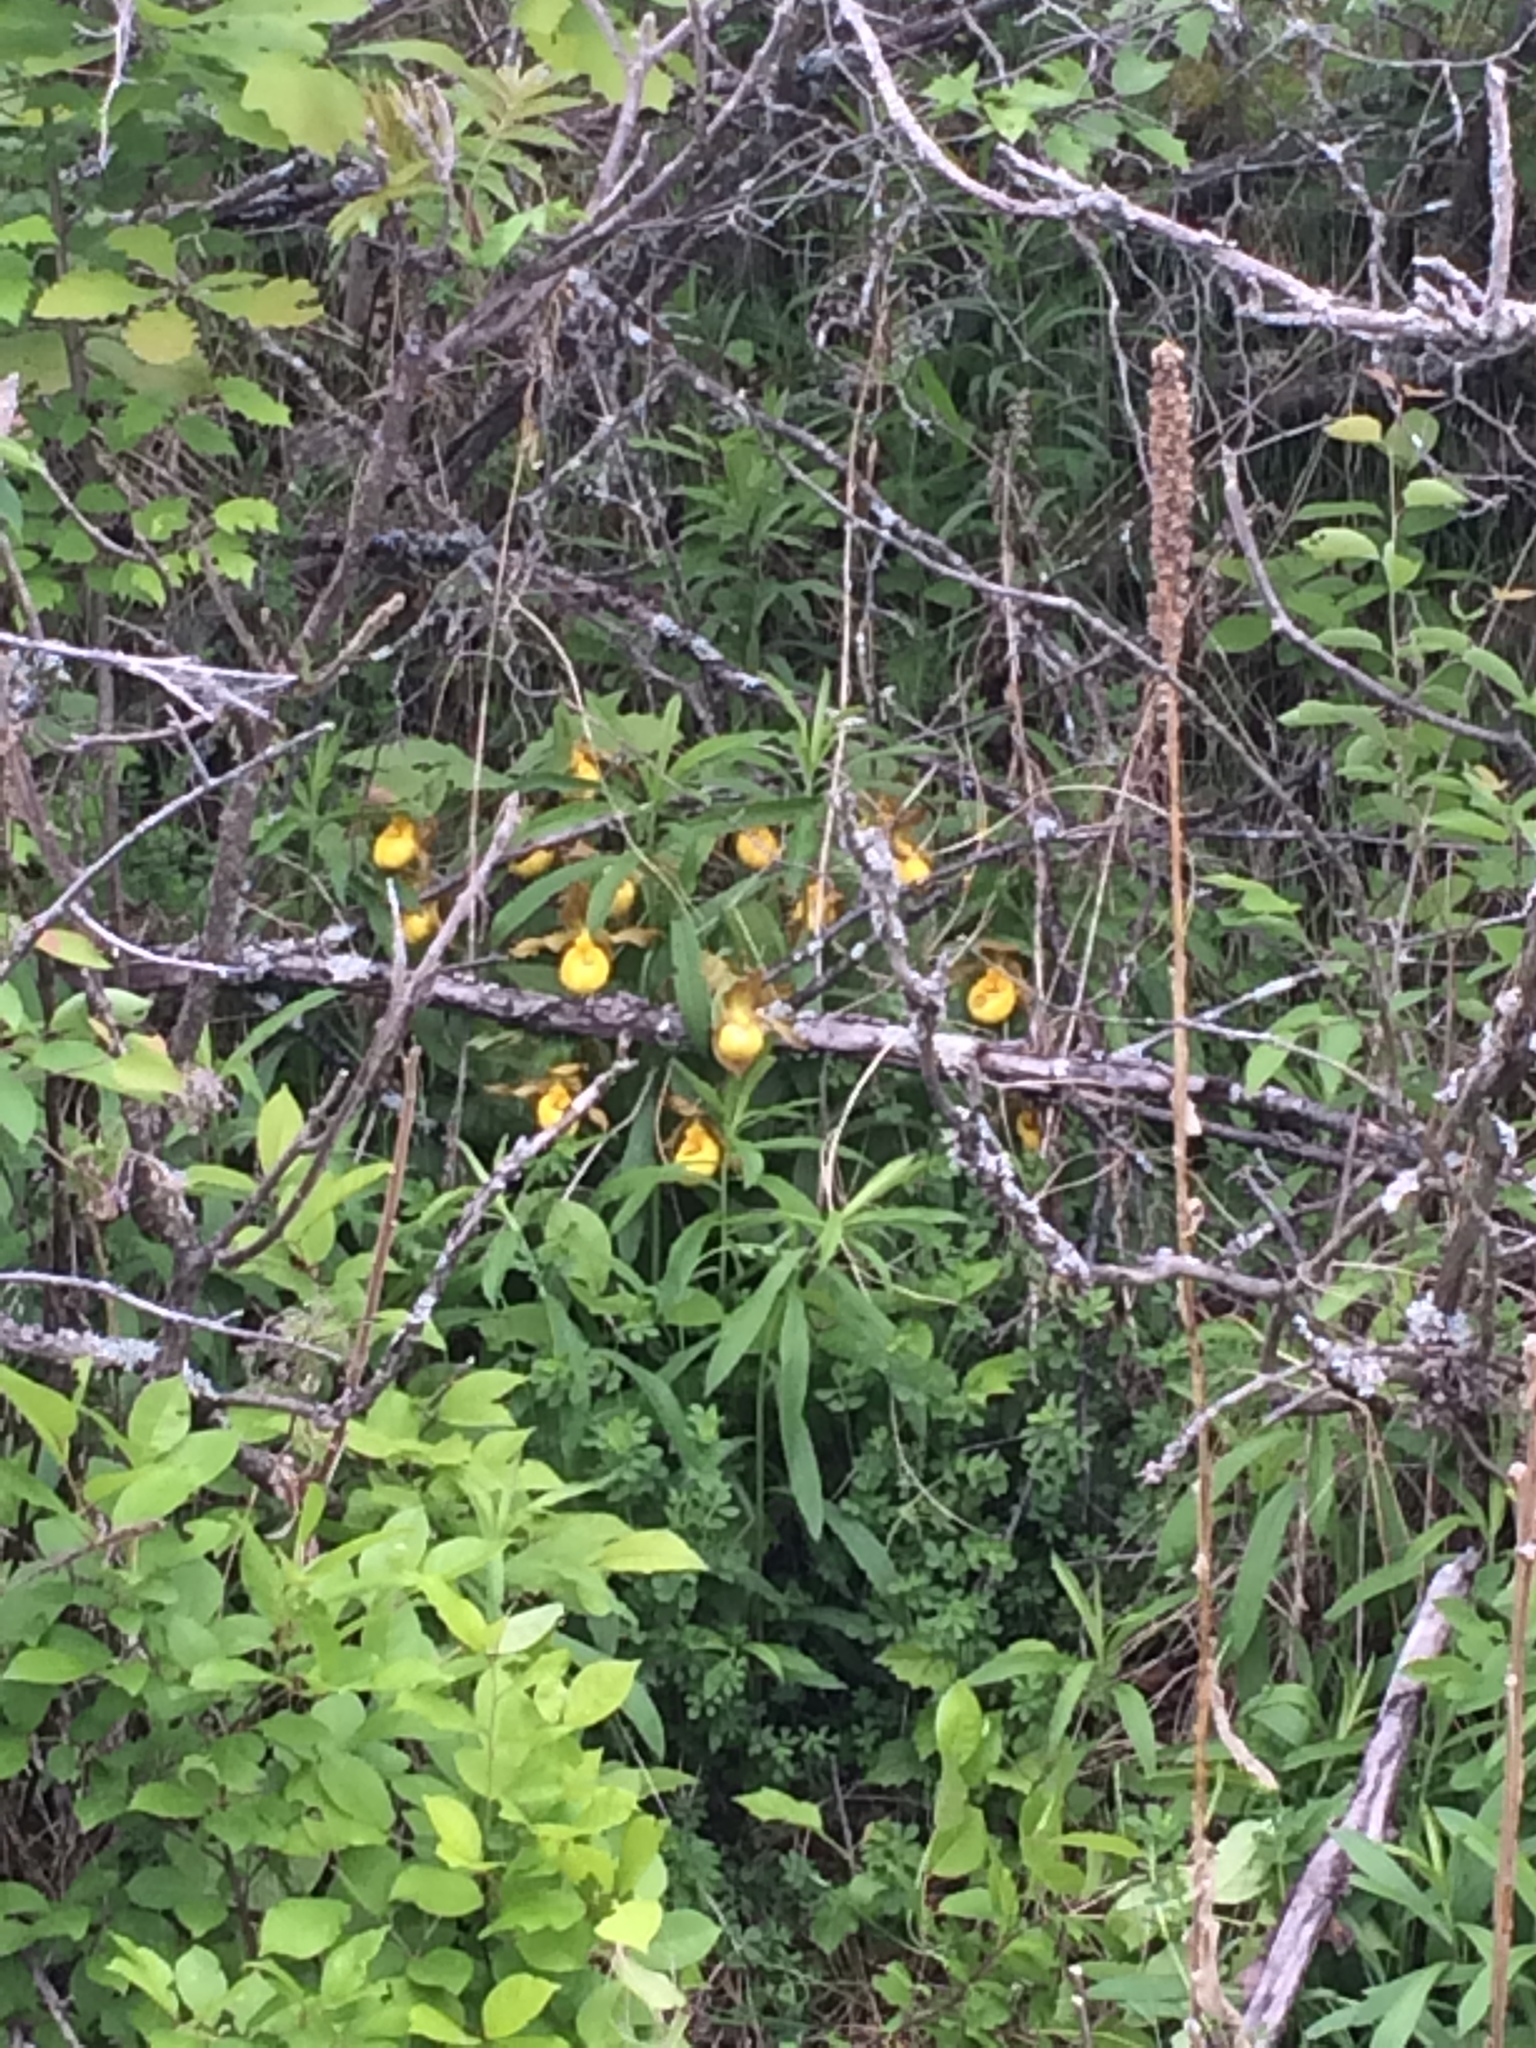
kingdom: Plantae
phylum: Tracheophyta
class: Liliopsida
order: Asparagales
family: Orchidaceae
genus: Cypripedium
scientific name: Cypripedium parviflorum
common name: American yellow lady's-slipper
